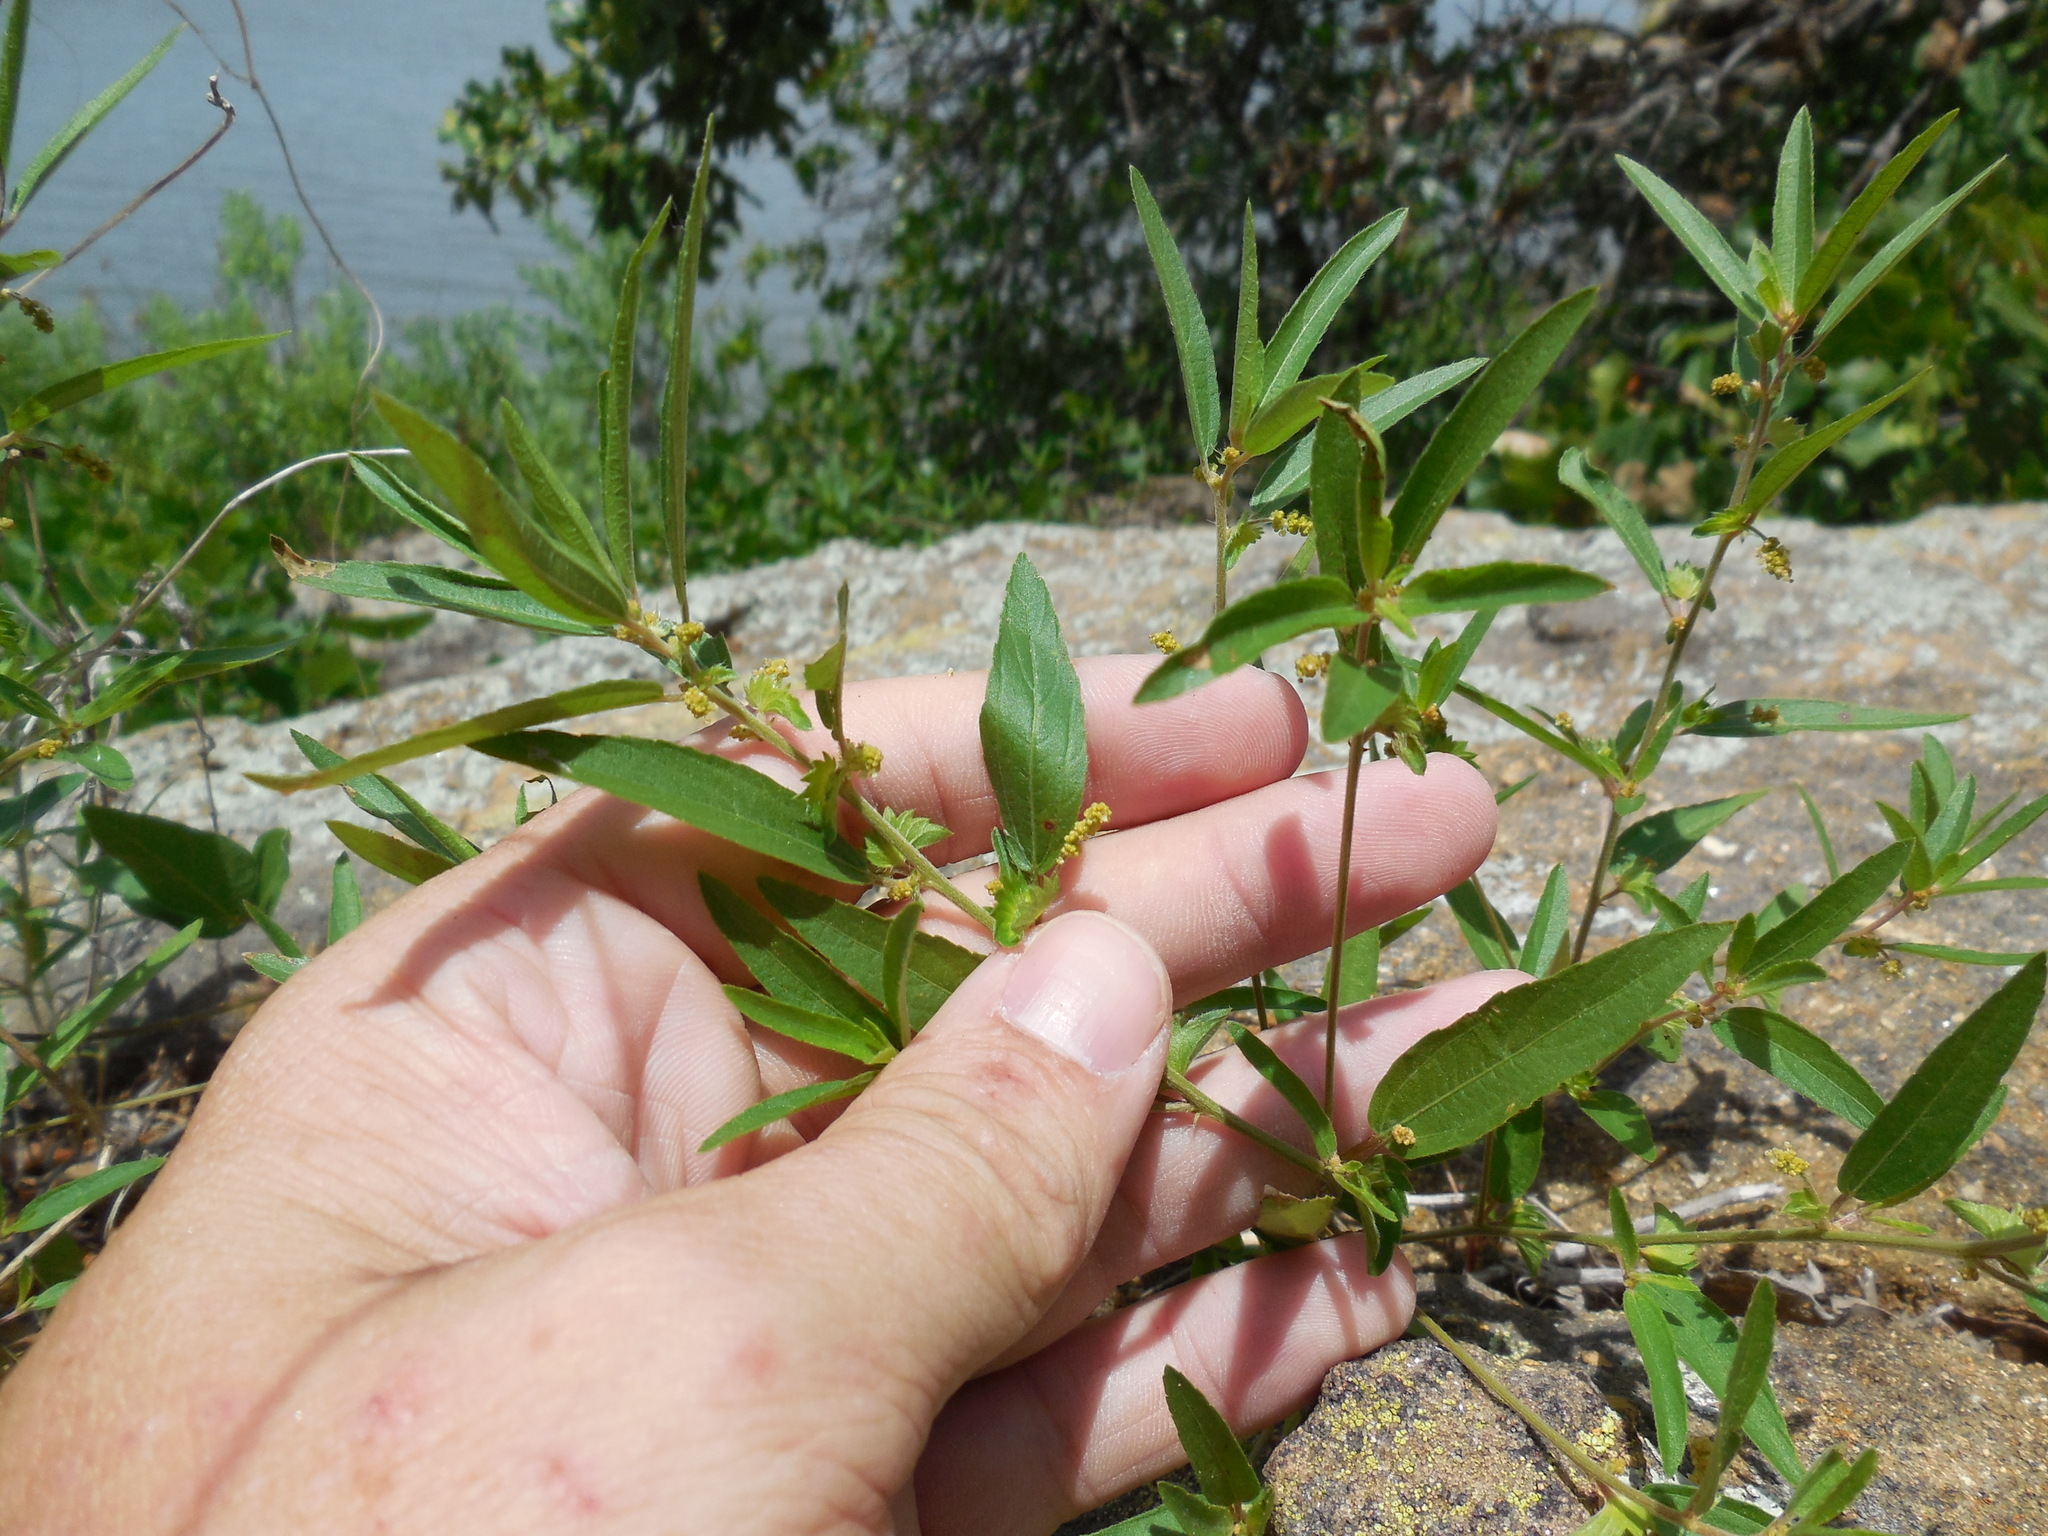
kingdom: Plantae
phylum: Tracheophyta
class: Magnoliopsida
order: Malpighiales
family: Euphorbiaceae
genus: Acalypha
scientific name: Acalypha monococca
